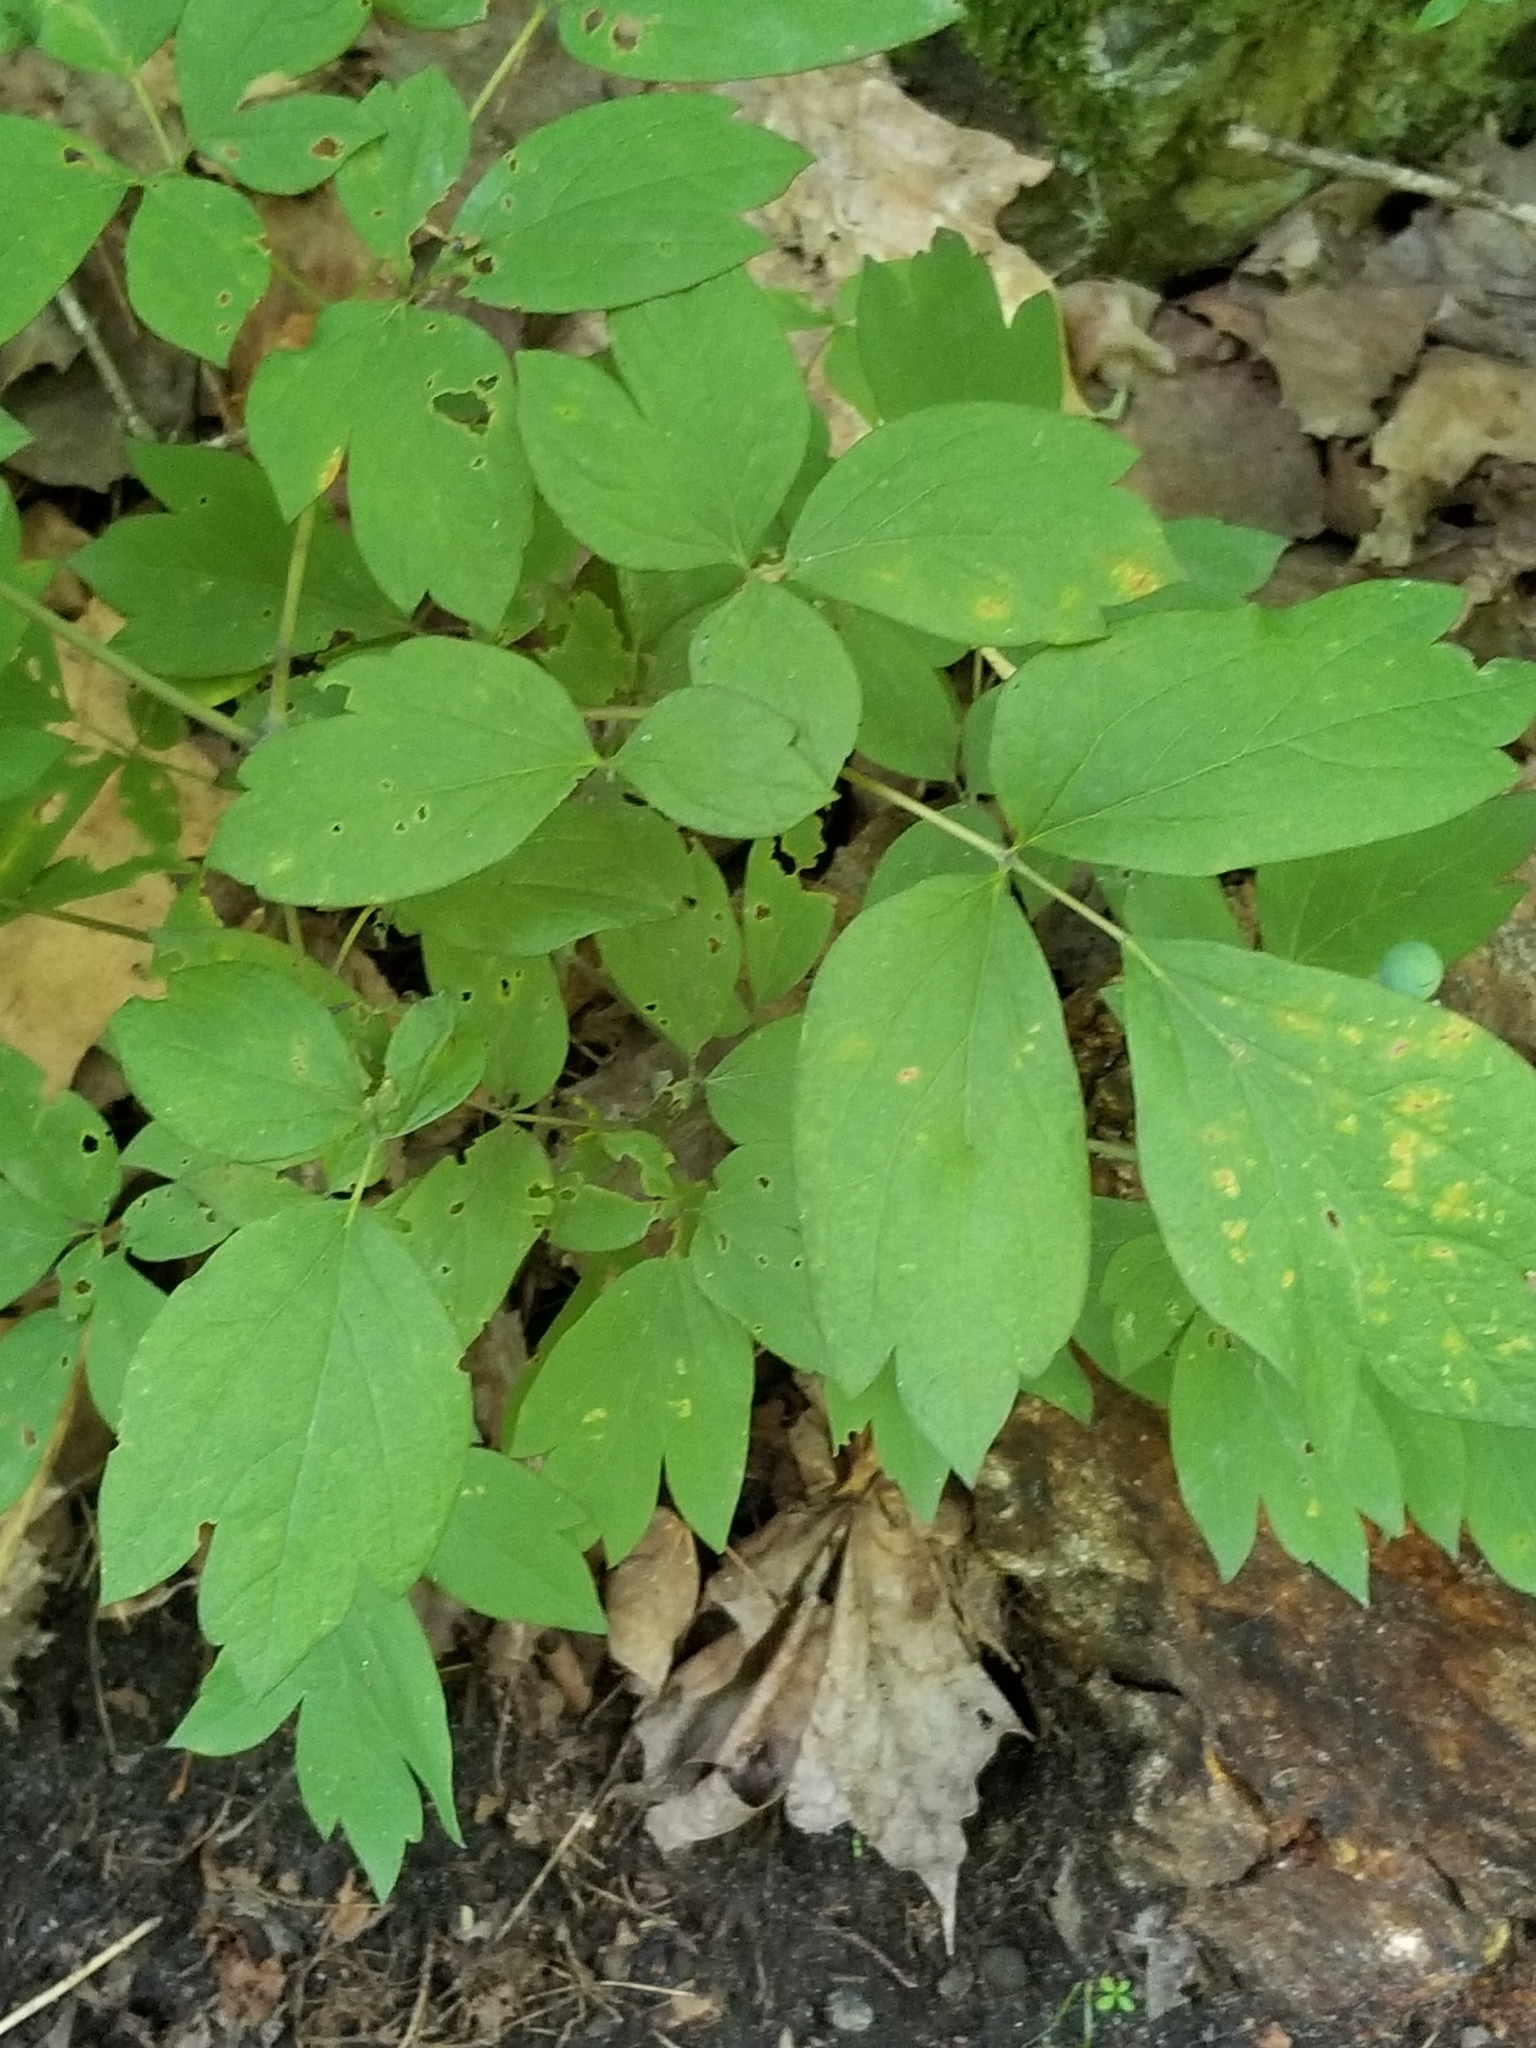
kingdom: Plantae
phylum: Tracheophyta
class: Magnoliopsida
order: Ranunculales
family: Berberidaceae
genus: Caulophyllum
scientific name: Caulophyllum thalictroides
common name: Blue cohosh
